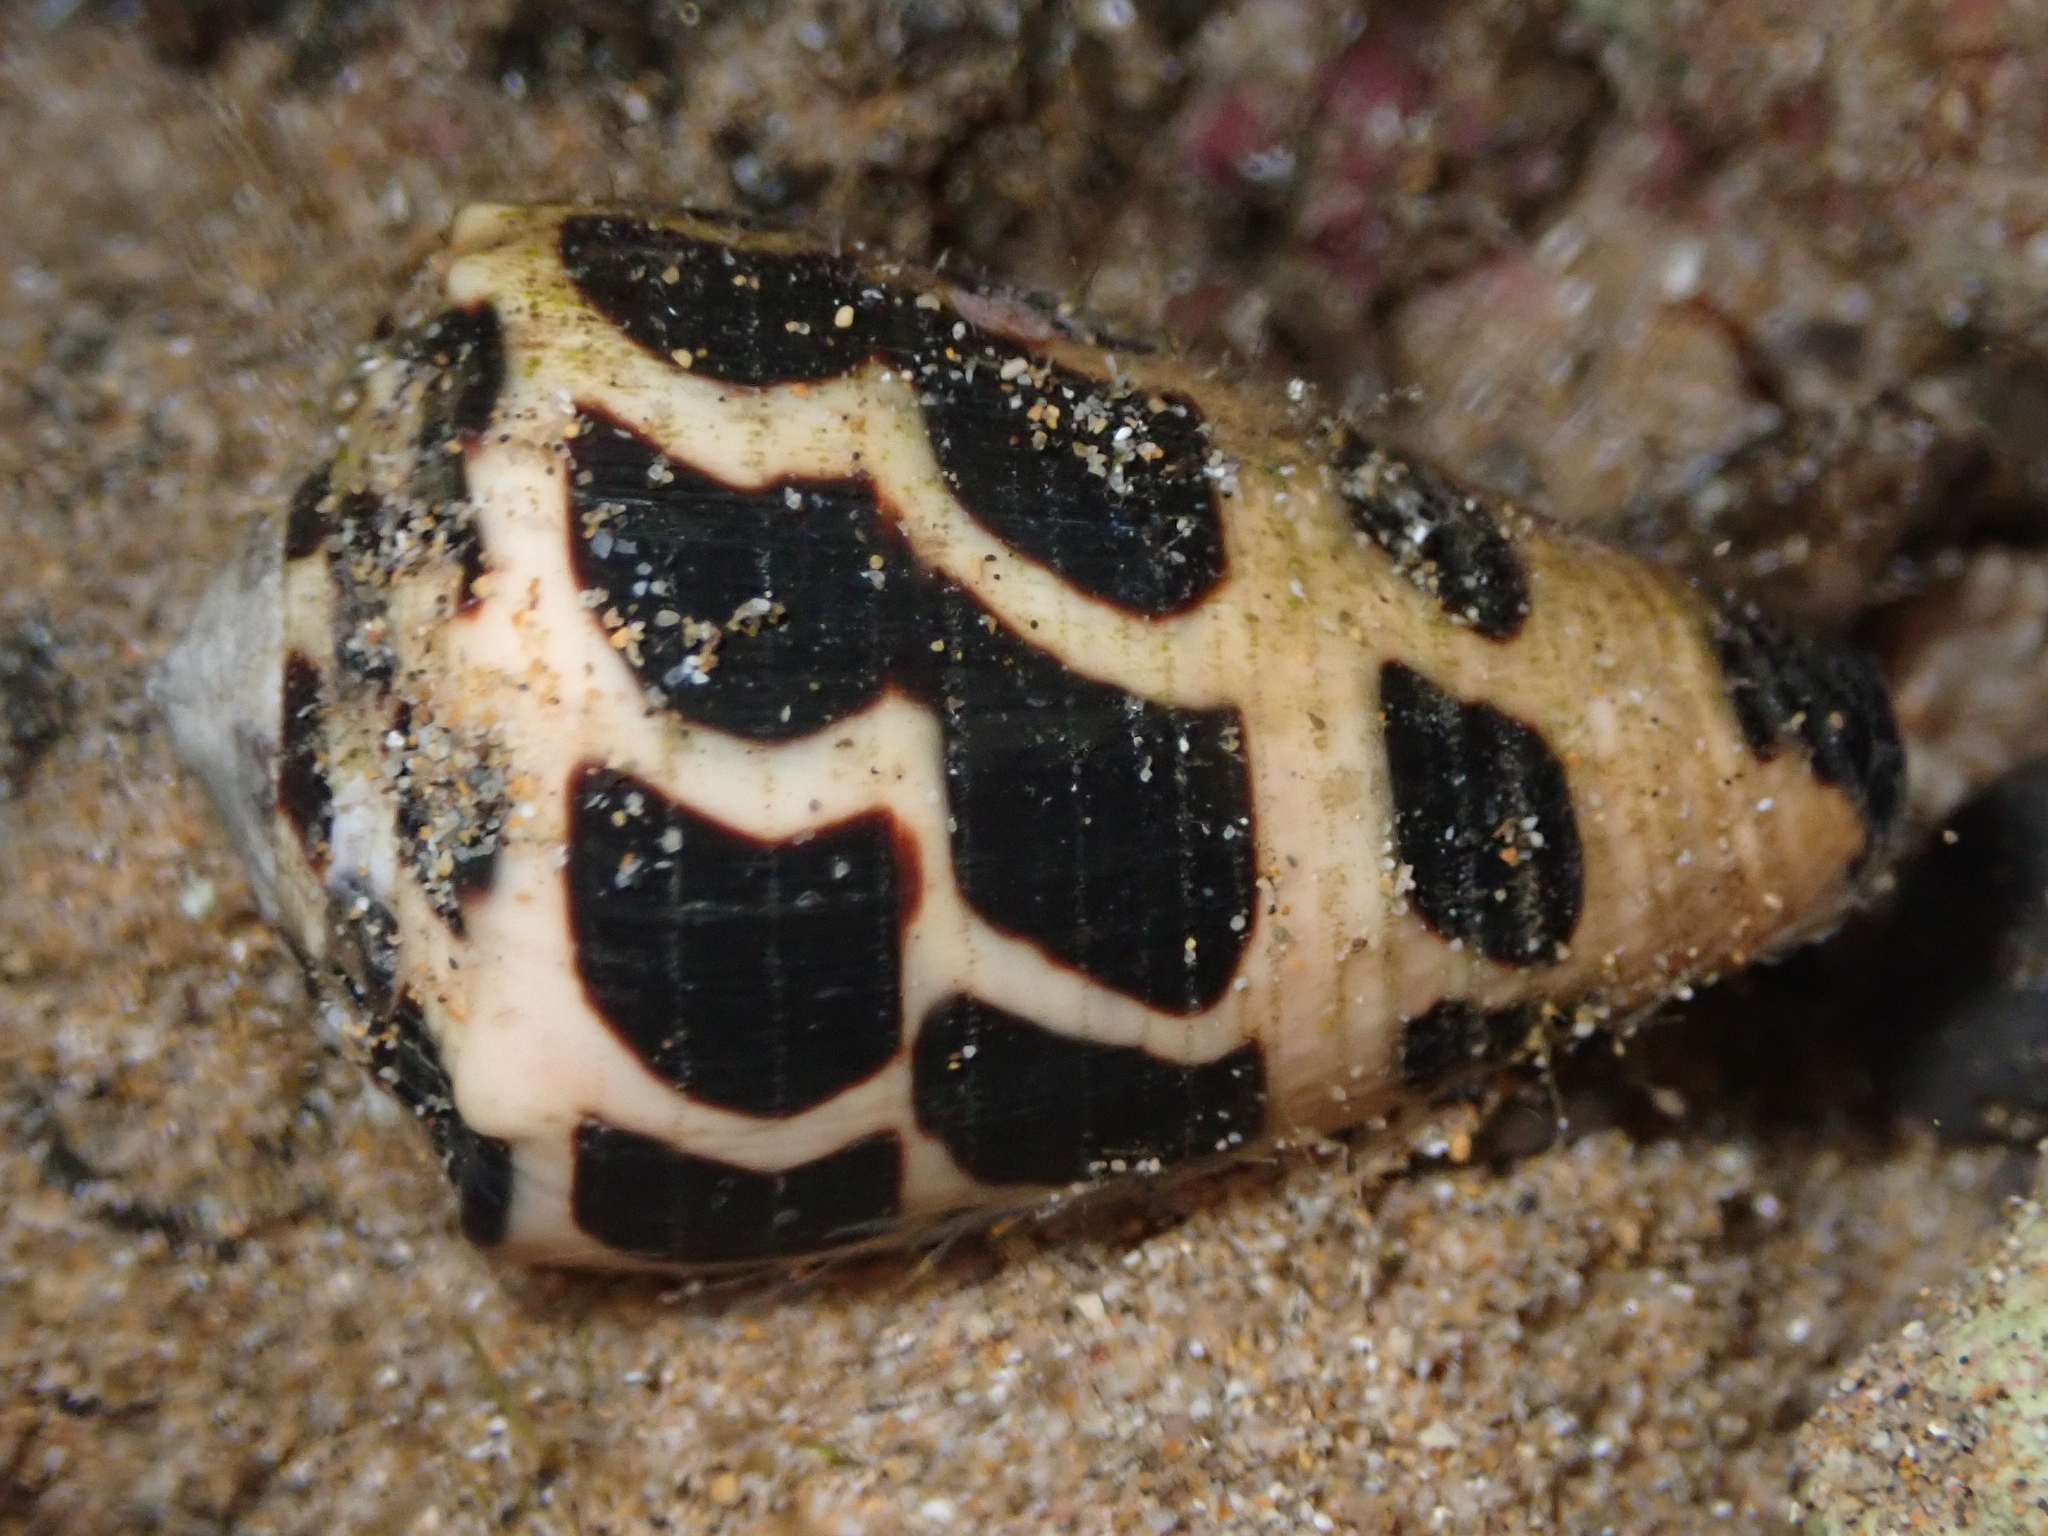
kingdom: Animalia
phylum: Mollusca
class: Gastropoda
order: Neogastropoda
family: Conidae
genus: Conus
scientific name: Conus ebraeus
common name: Hebrew cone
